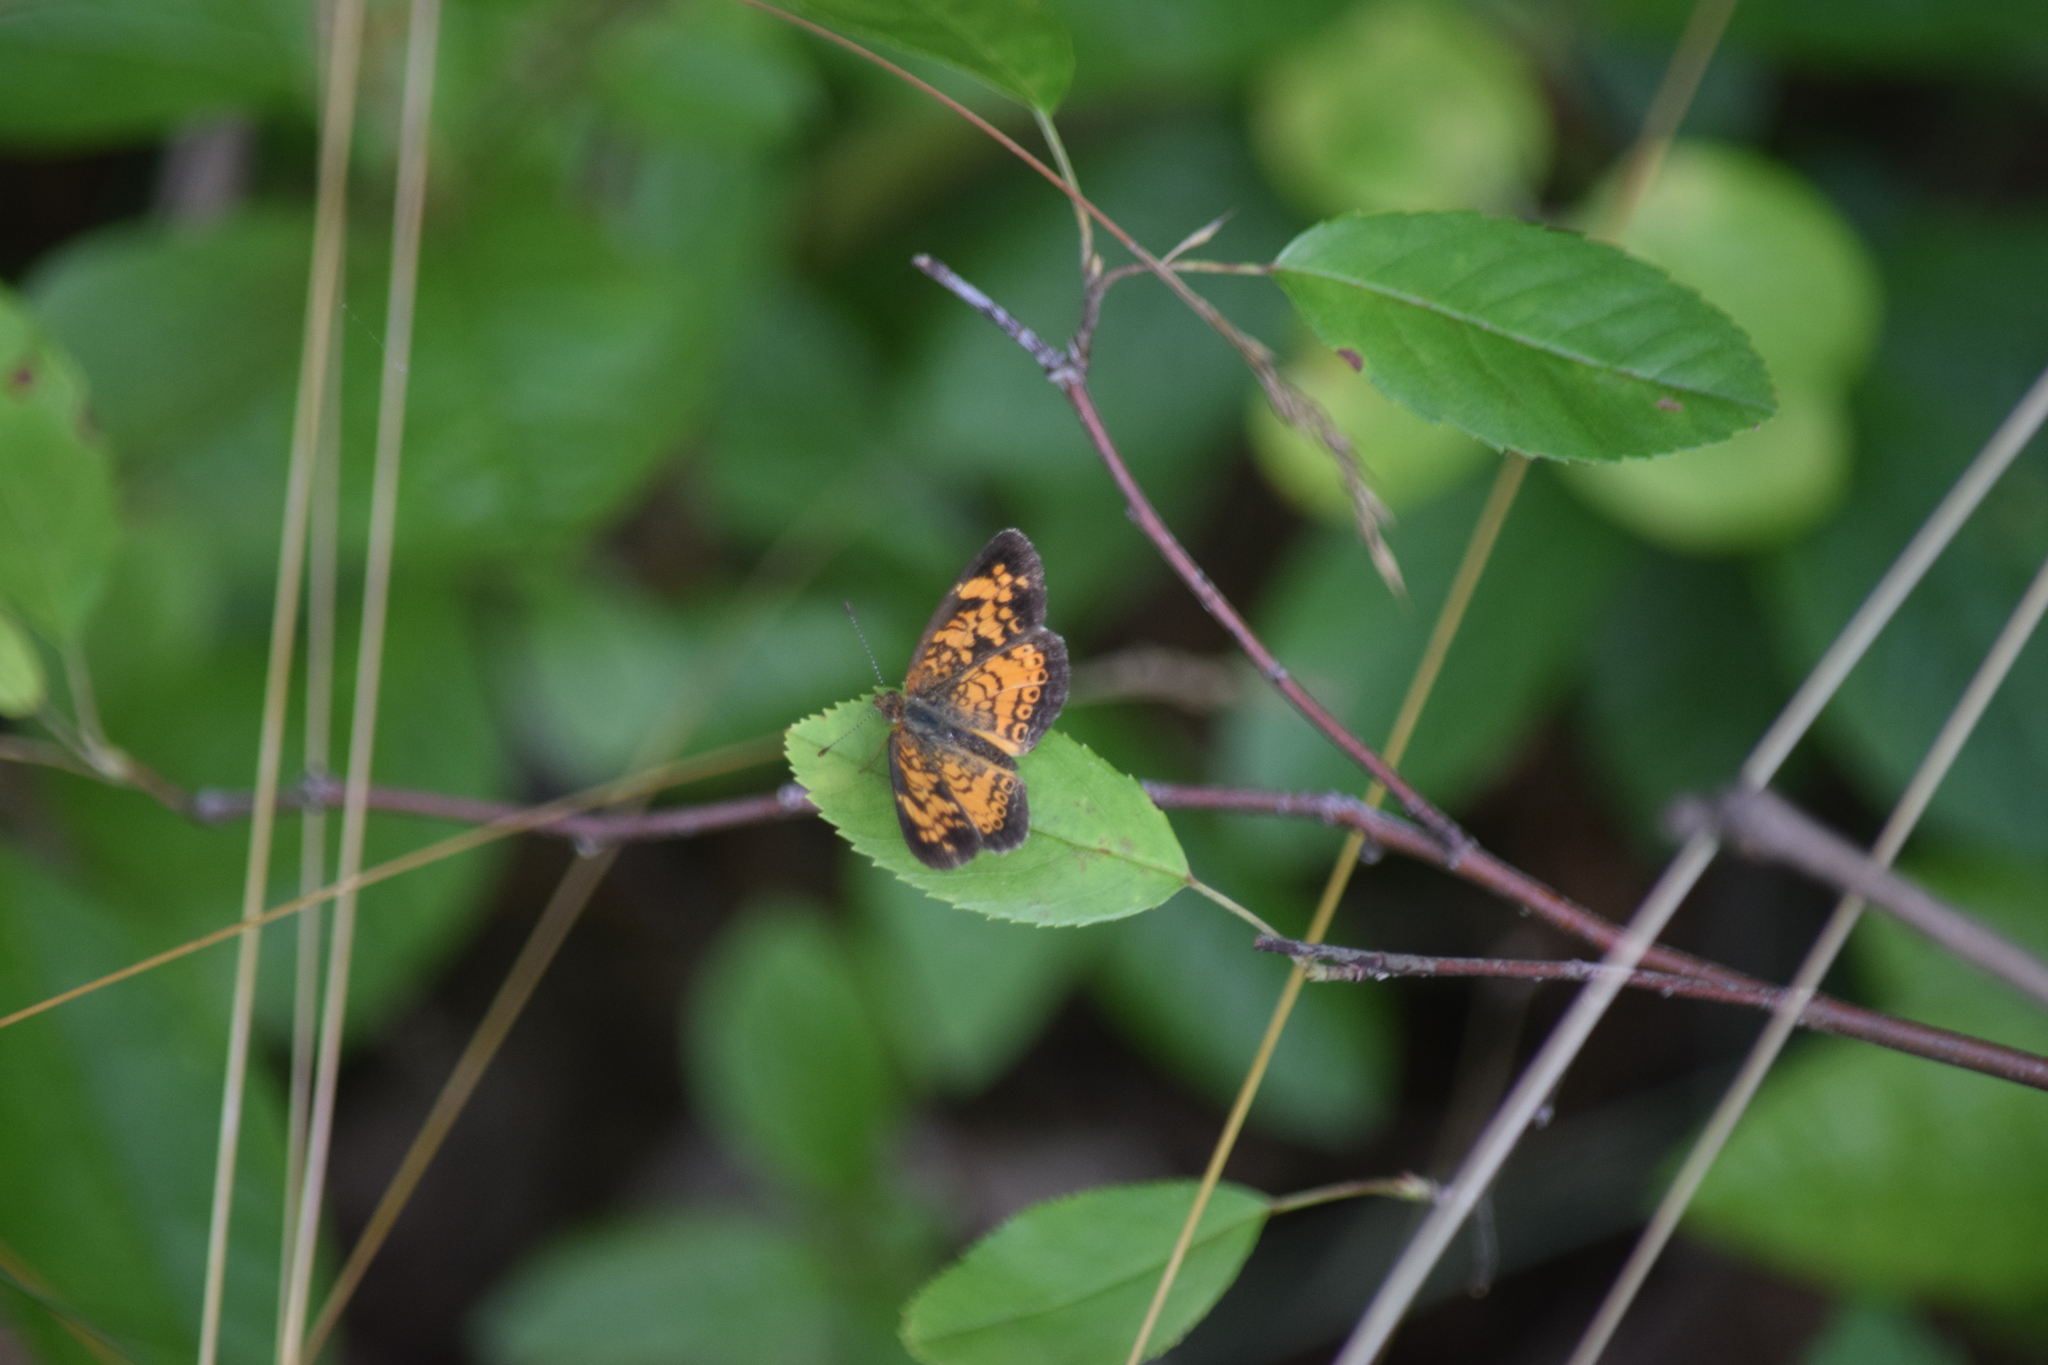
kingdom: Animalia
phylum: Arthropoda
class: Insecta
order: Lepidoptera
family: Nymphalidae
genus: Phyciodes
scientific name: Phyciodes tharos
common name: Pearl crescent
